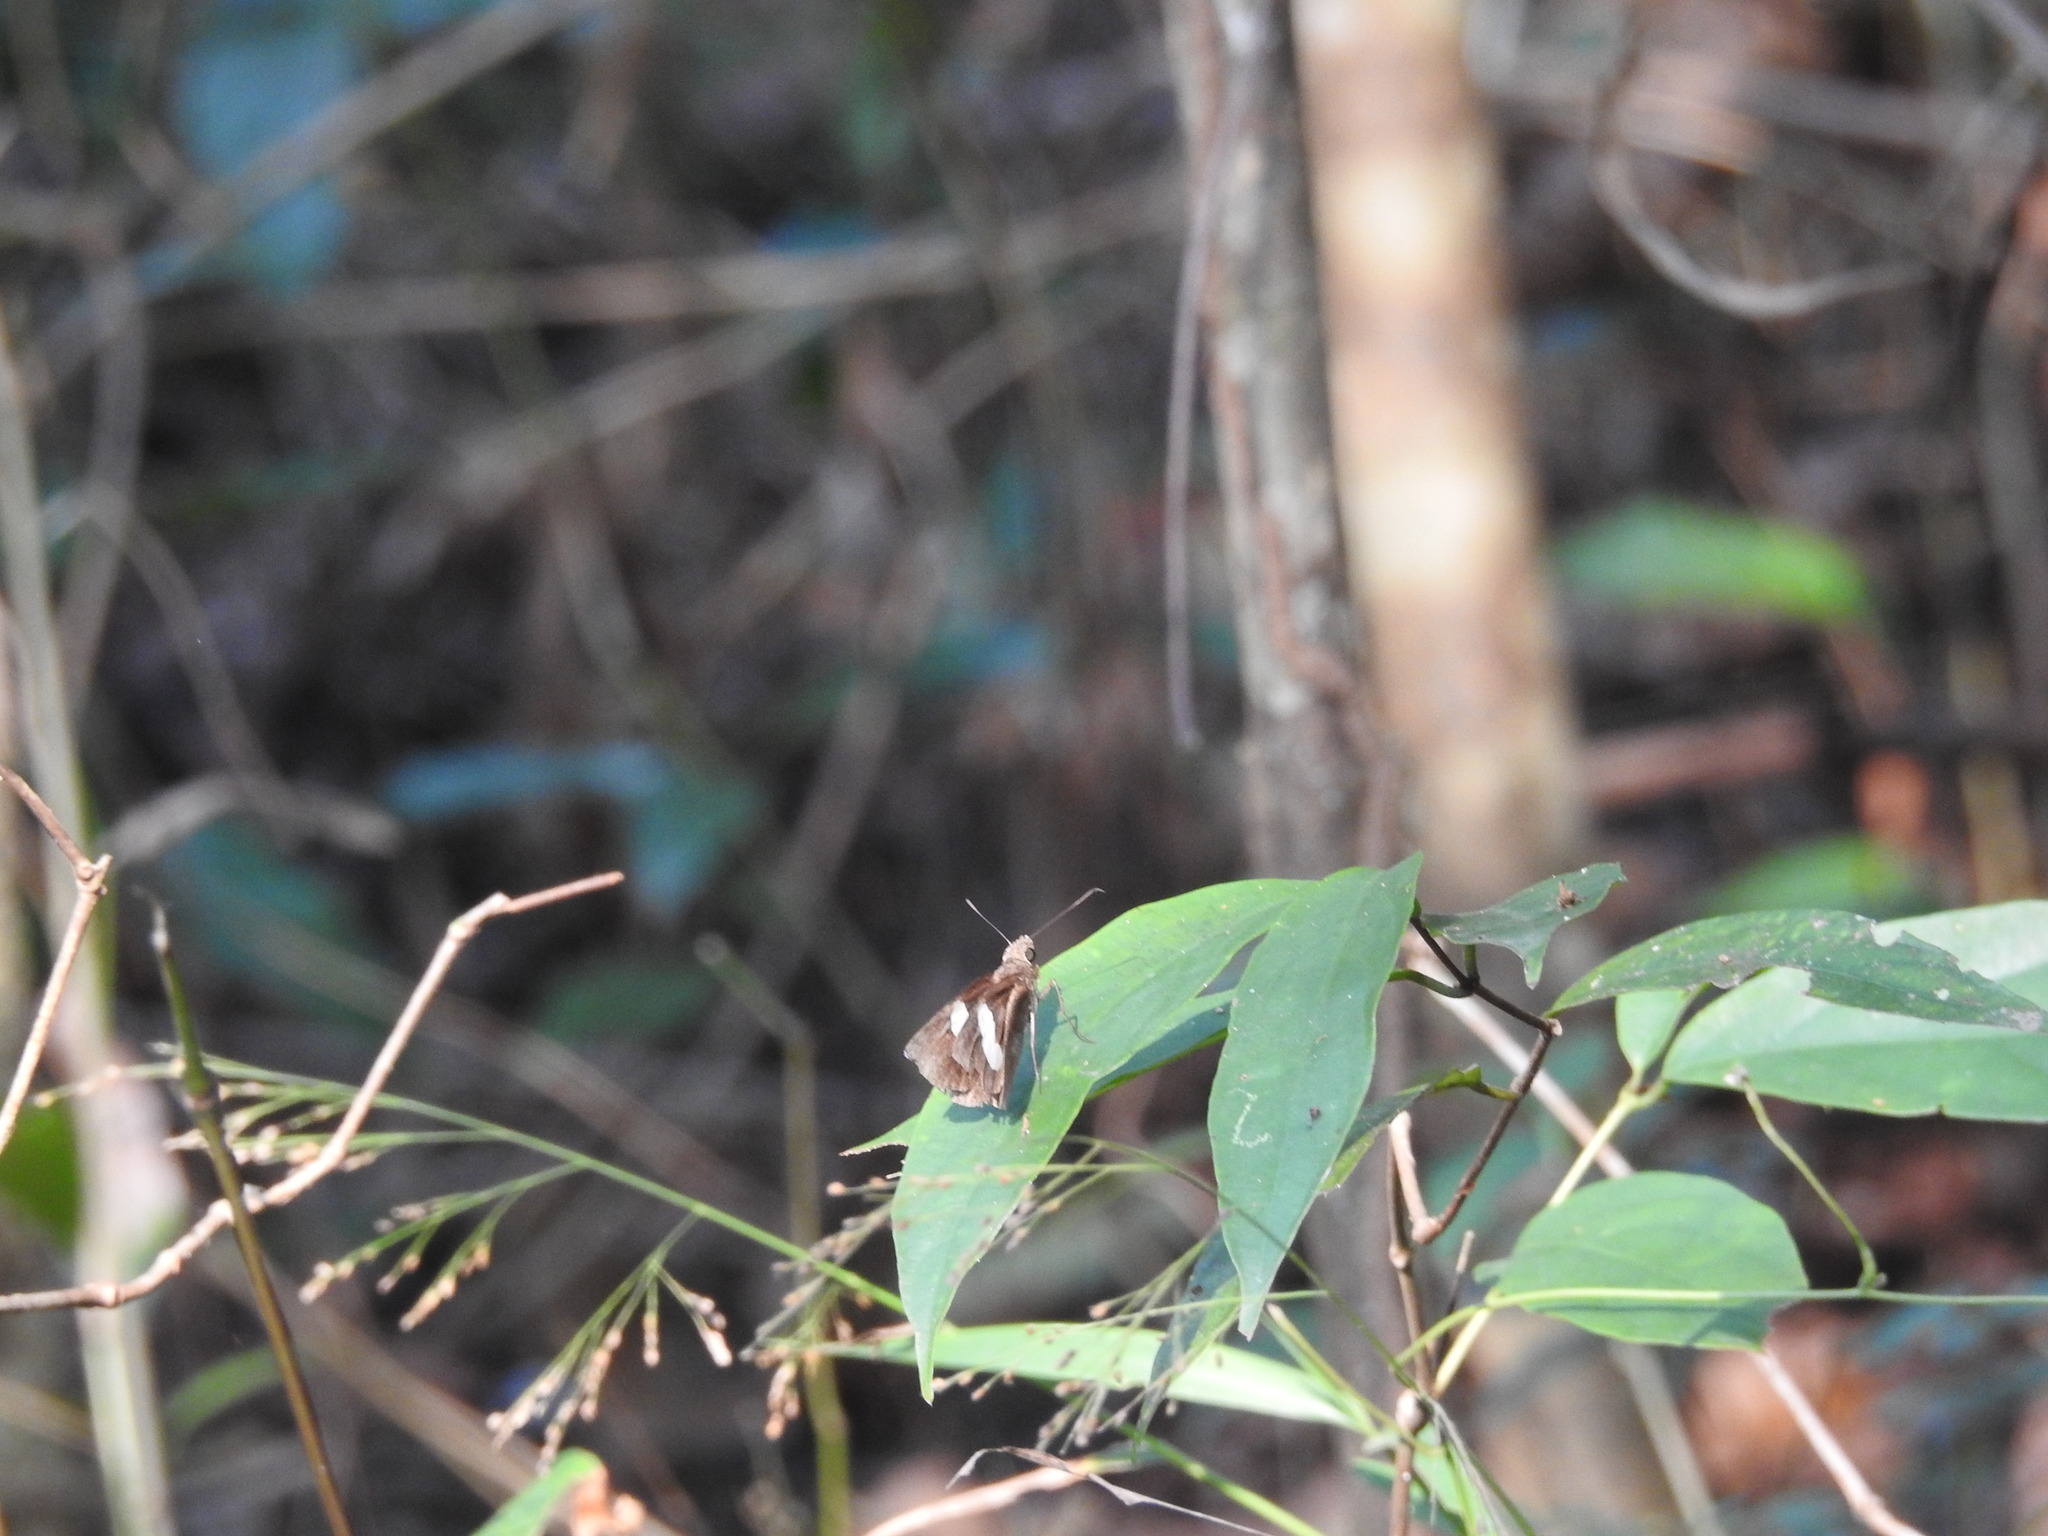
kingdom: Animalia
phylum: Arthropoda
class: Insecta
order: Lepidoptera
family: Hesperiidae
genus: Notocrypta
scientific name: Notocrypta curvifascia
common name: Restricted demon
